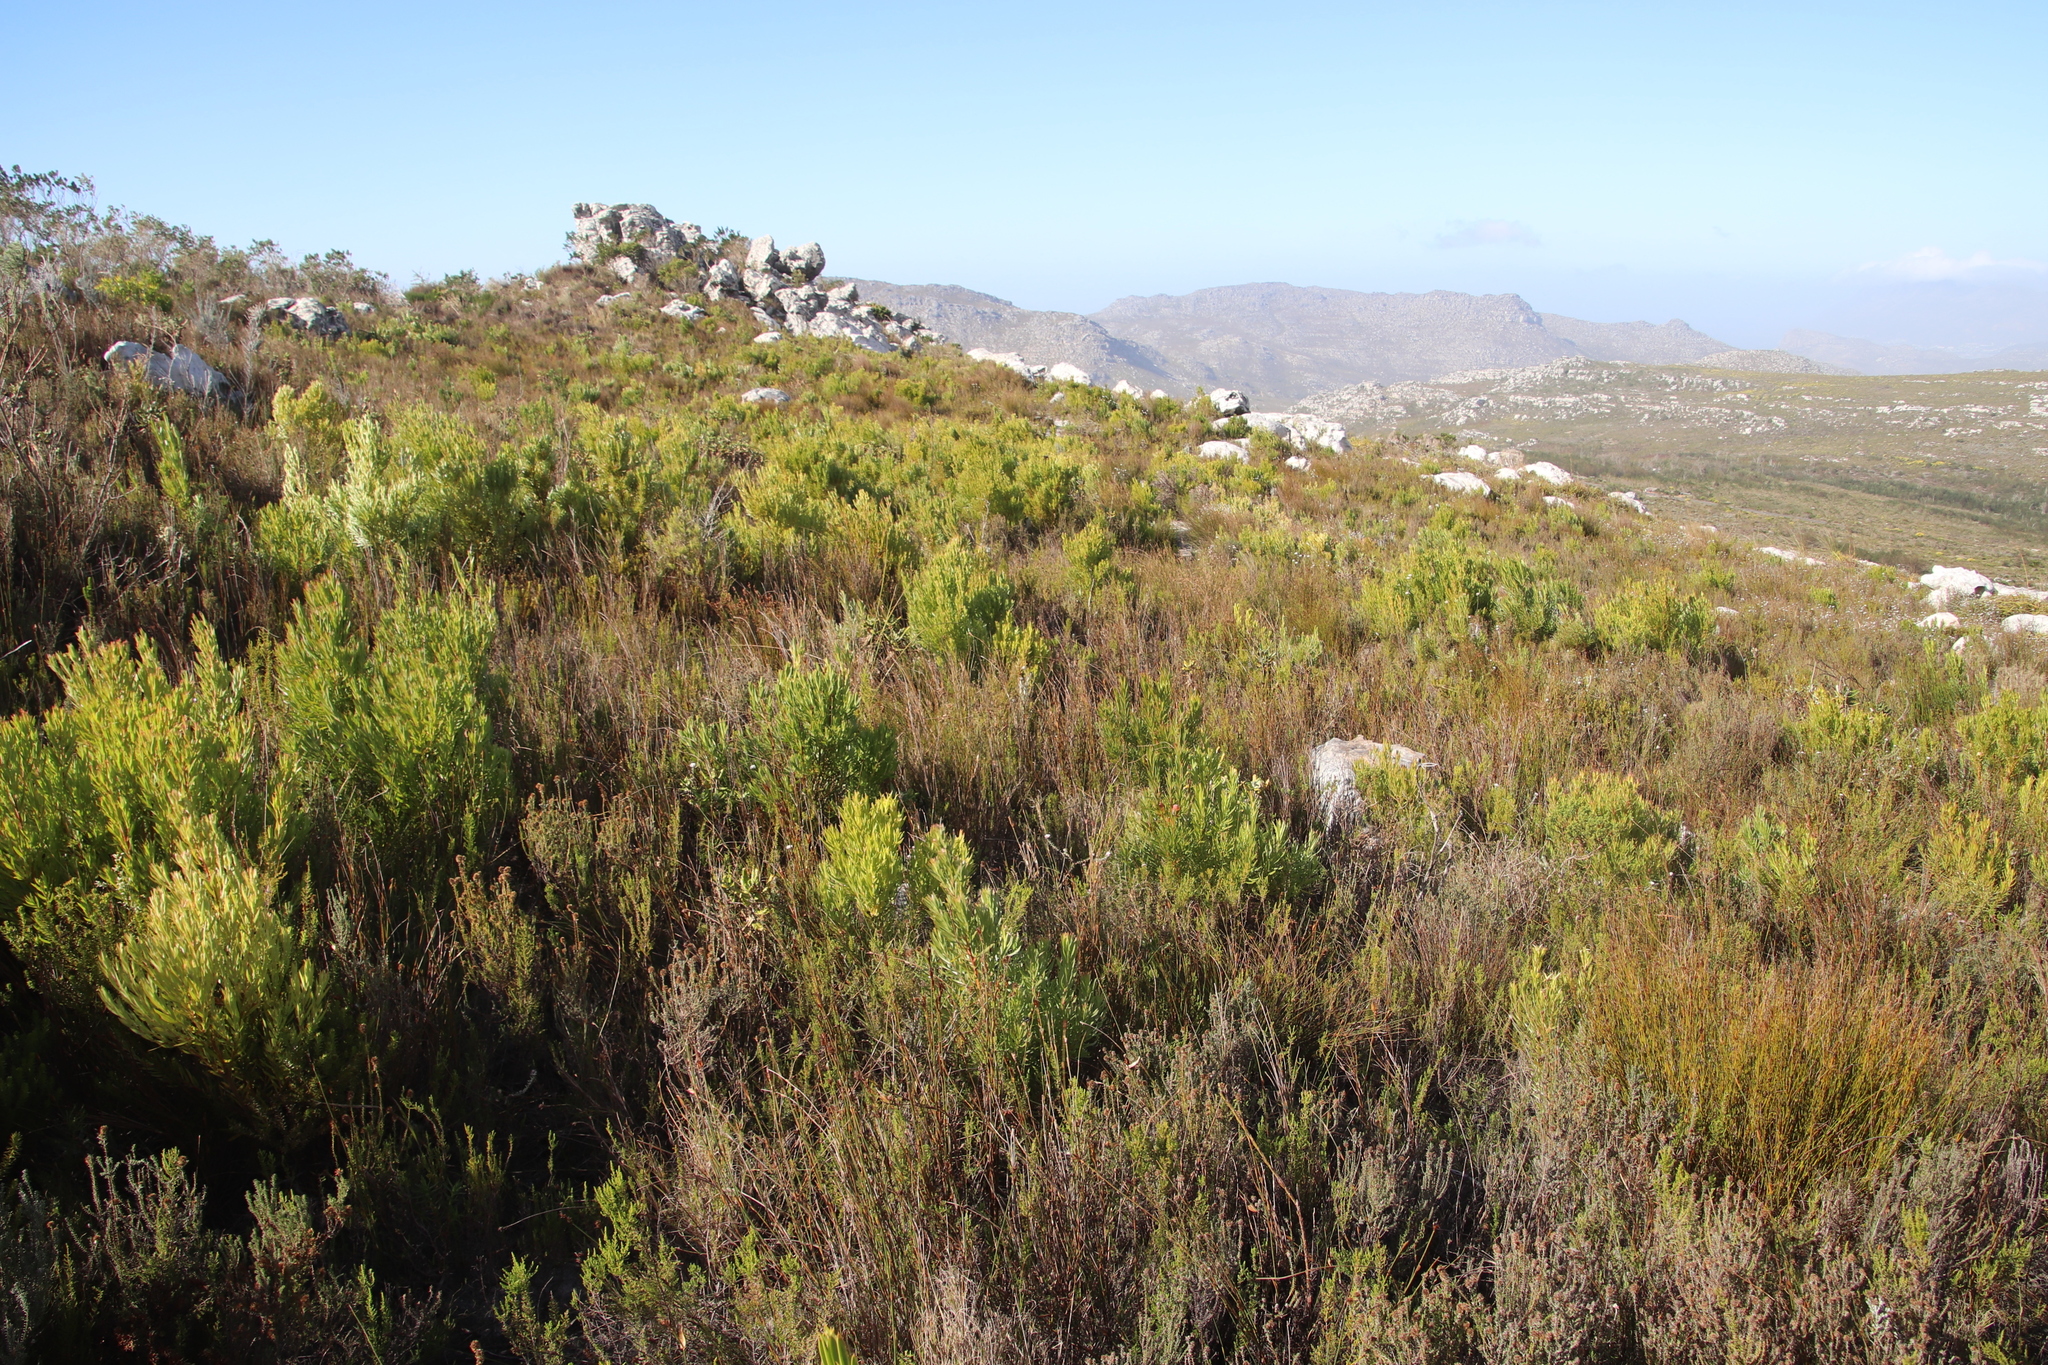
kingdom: Plantae
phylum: Tracheophyta
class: Magnoliopsida
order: Proteales
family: Proteaceae
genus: Leucadendron
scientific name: Leucadendron xanthoconus
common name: Sickle-leaf conebush
